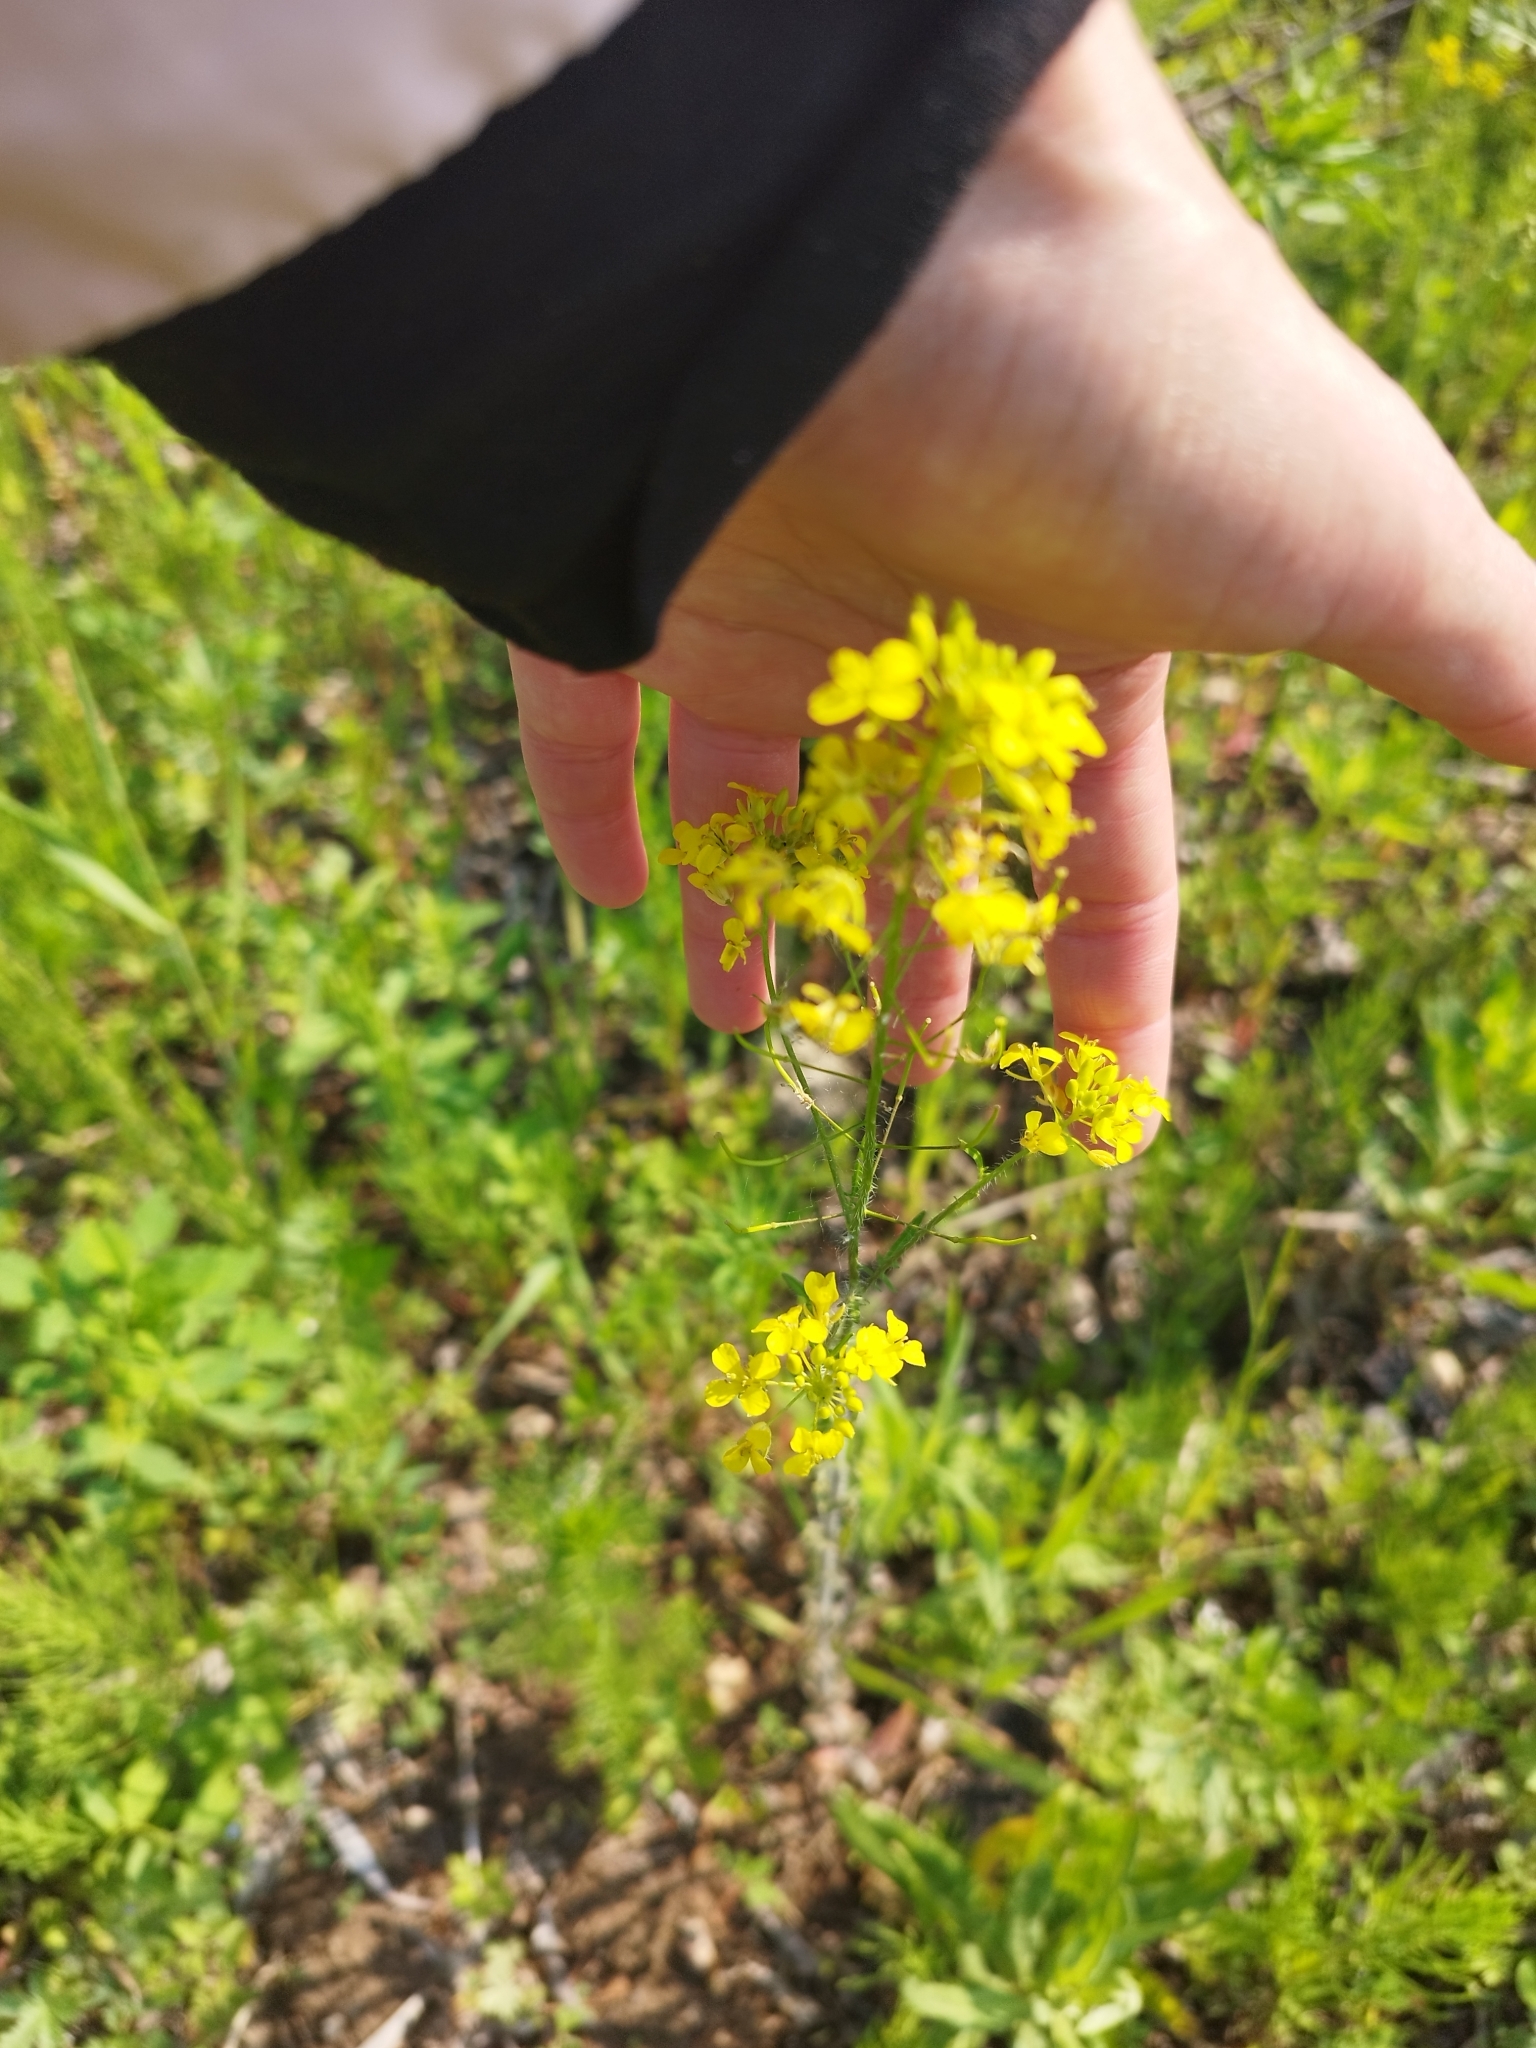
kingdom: Plantae
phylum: Tracheophyta
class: Magnoliopsida
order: Brassicales
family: Brassicaceae
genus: Sisymbrium
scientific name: Sisymbrium loeselii
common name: False london-rocket
